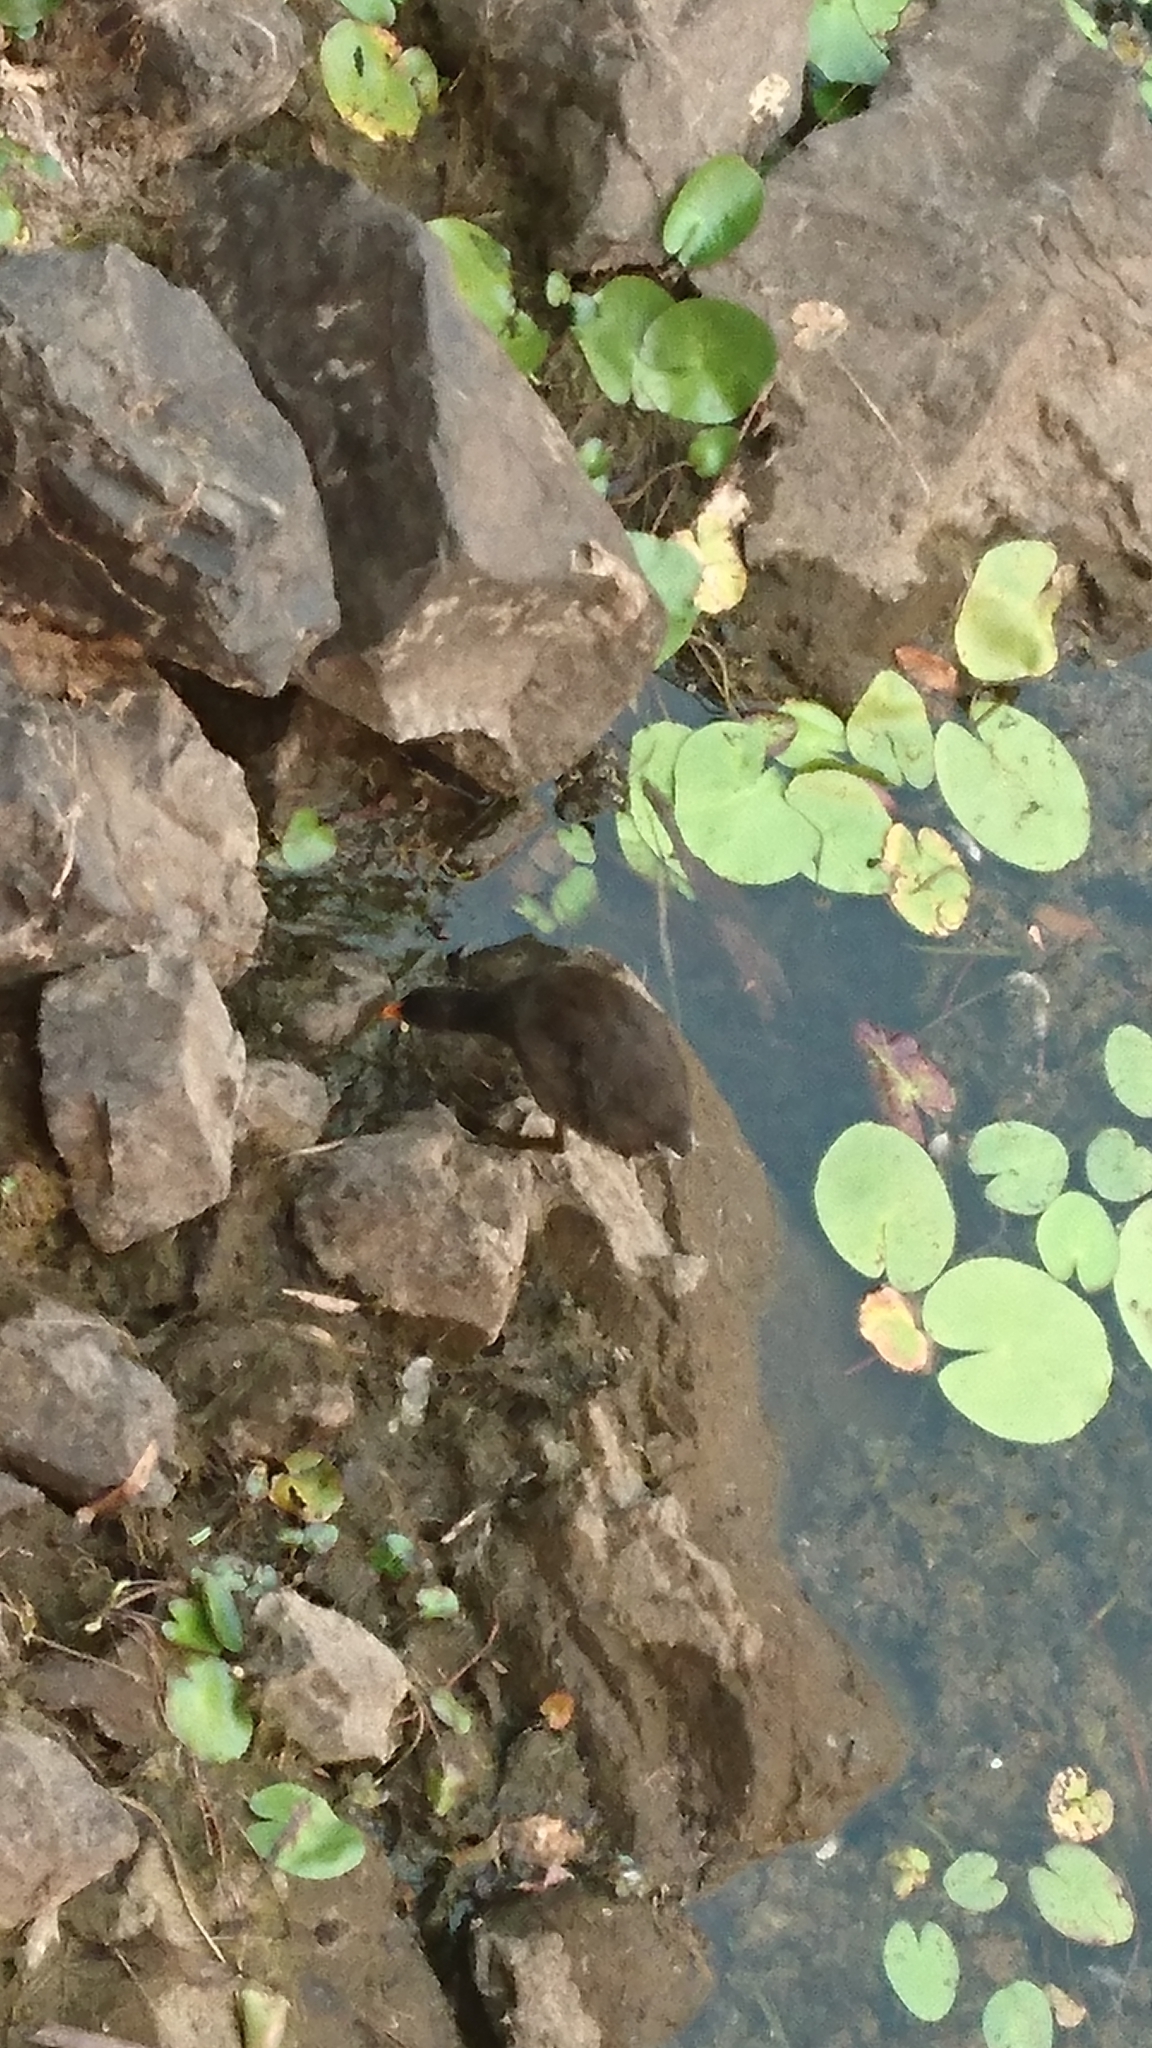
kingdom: Animalia
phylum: Chordata
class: Aves
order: Gruiformes
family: Rallidae
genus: Gallinula
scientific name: Gallinula tenebrosa
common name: Dusky moorhen
